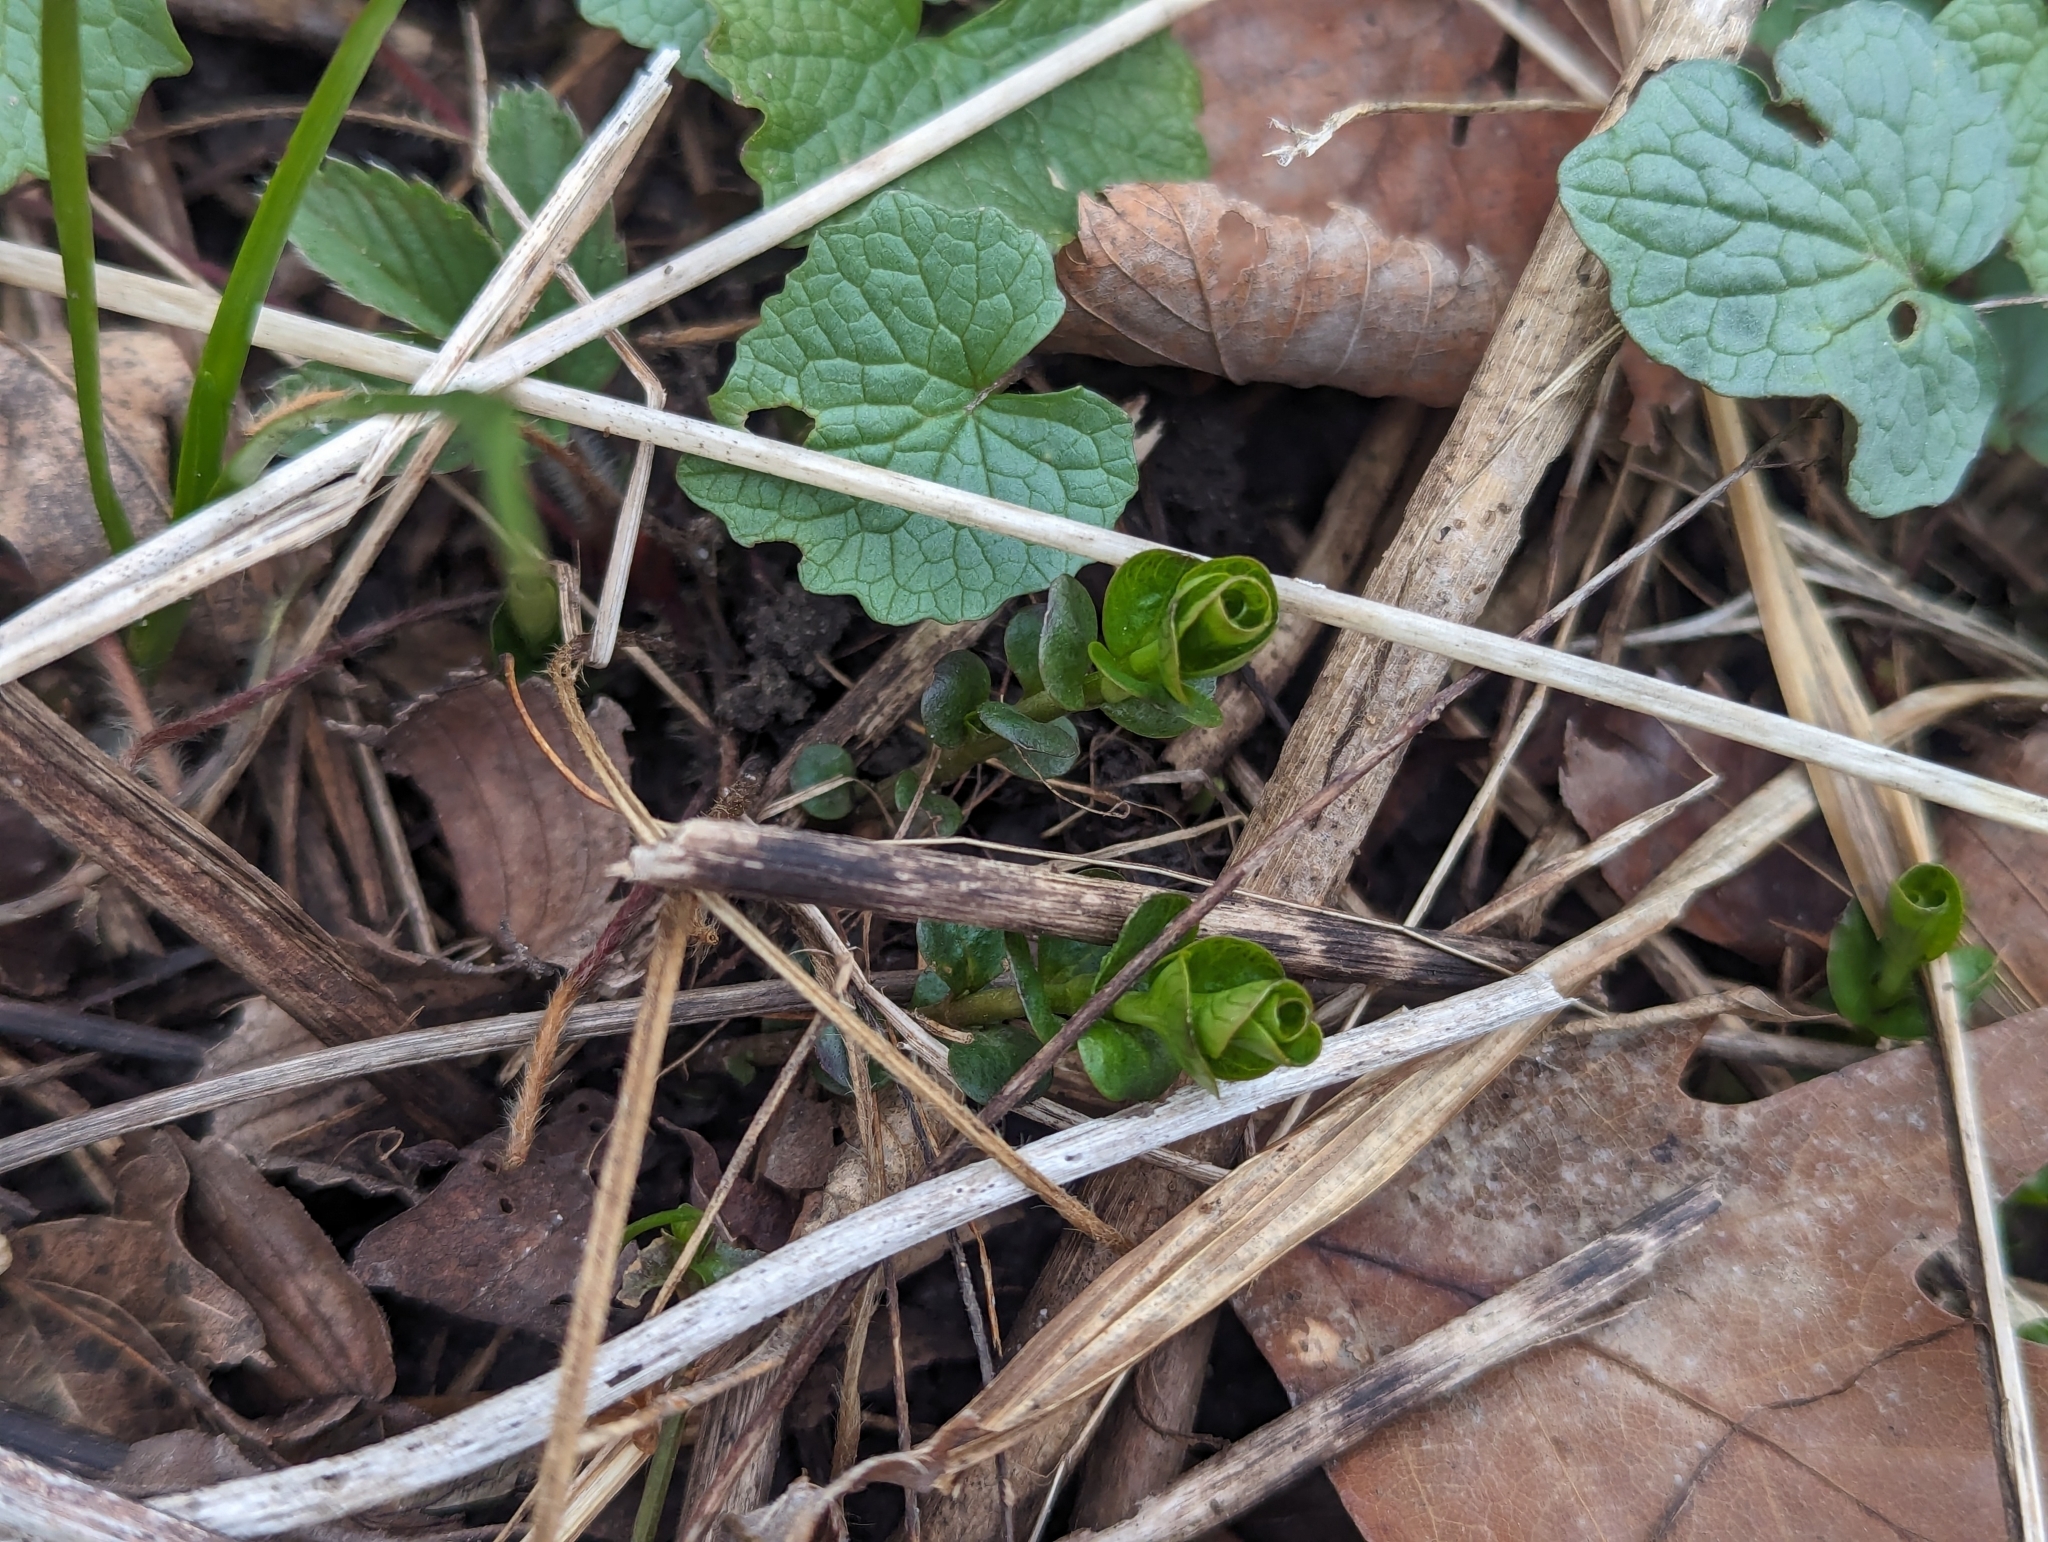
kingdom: Plantae
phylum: Tracheophyta
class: Magnoliopsida
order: Ericales
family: Primulaceae
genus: Lysimachia
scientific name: Lysimachia nummularia
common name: Moneywort
